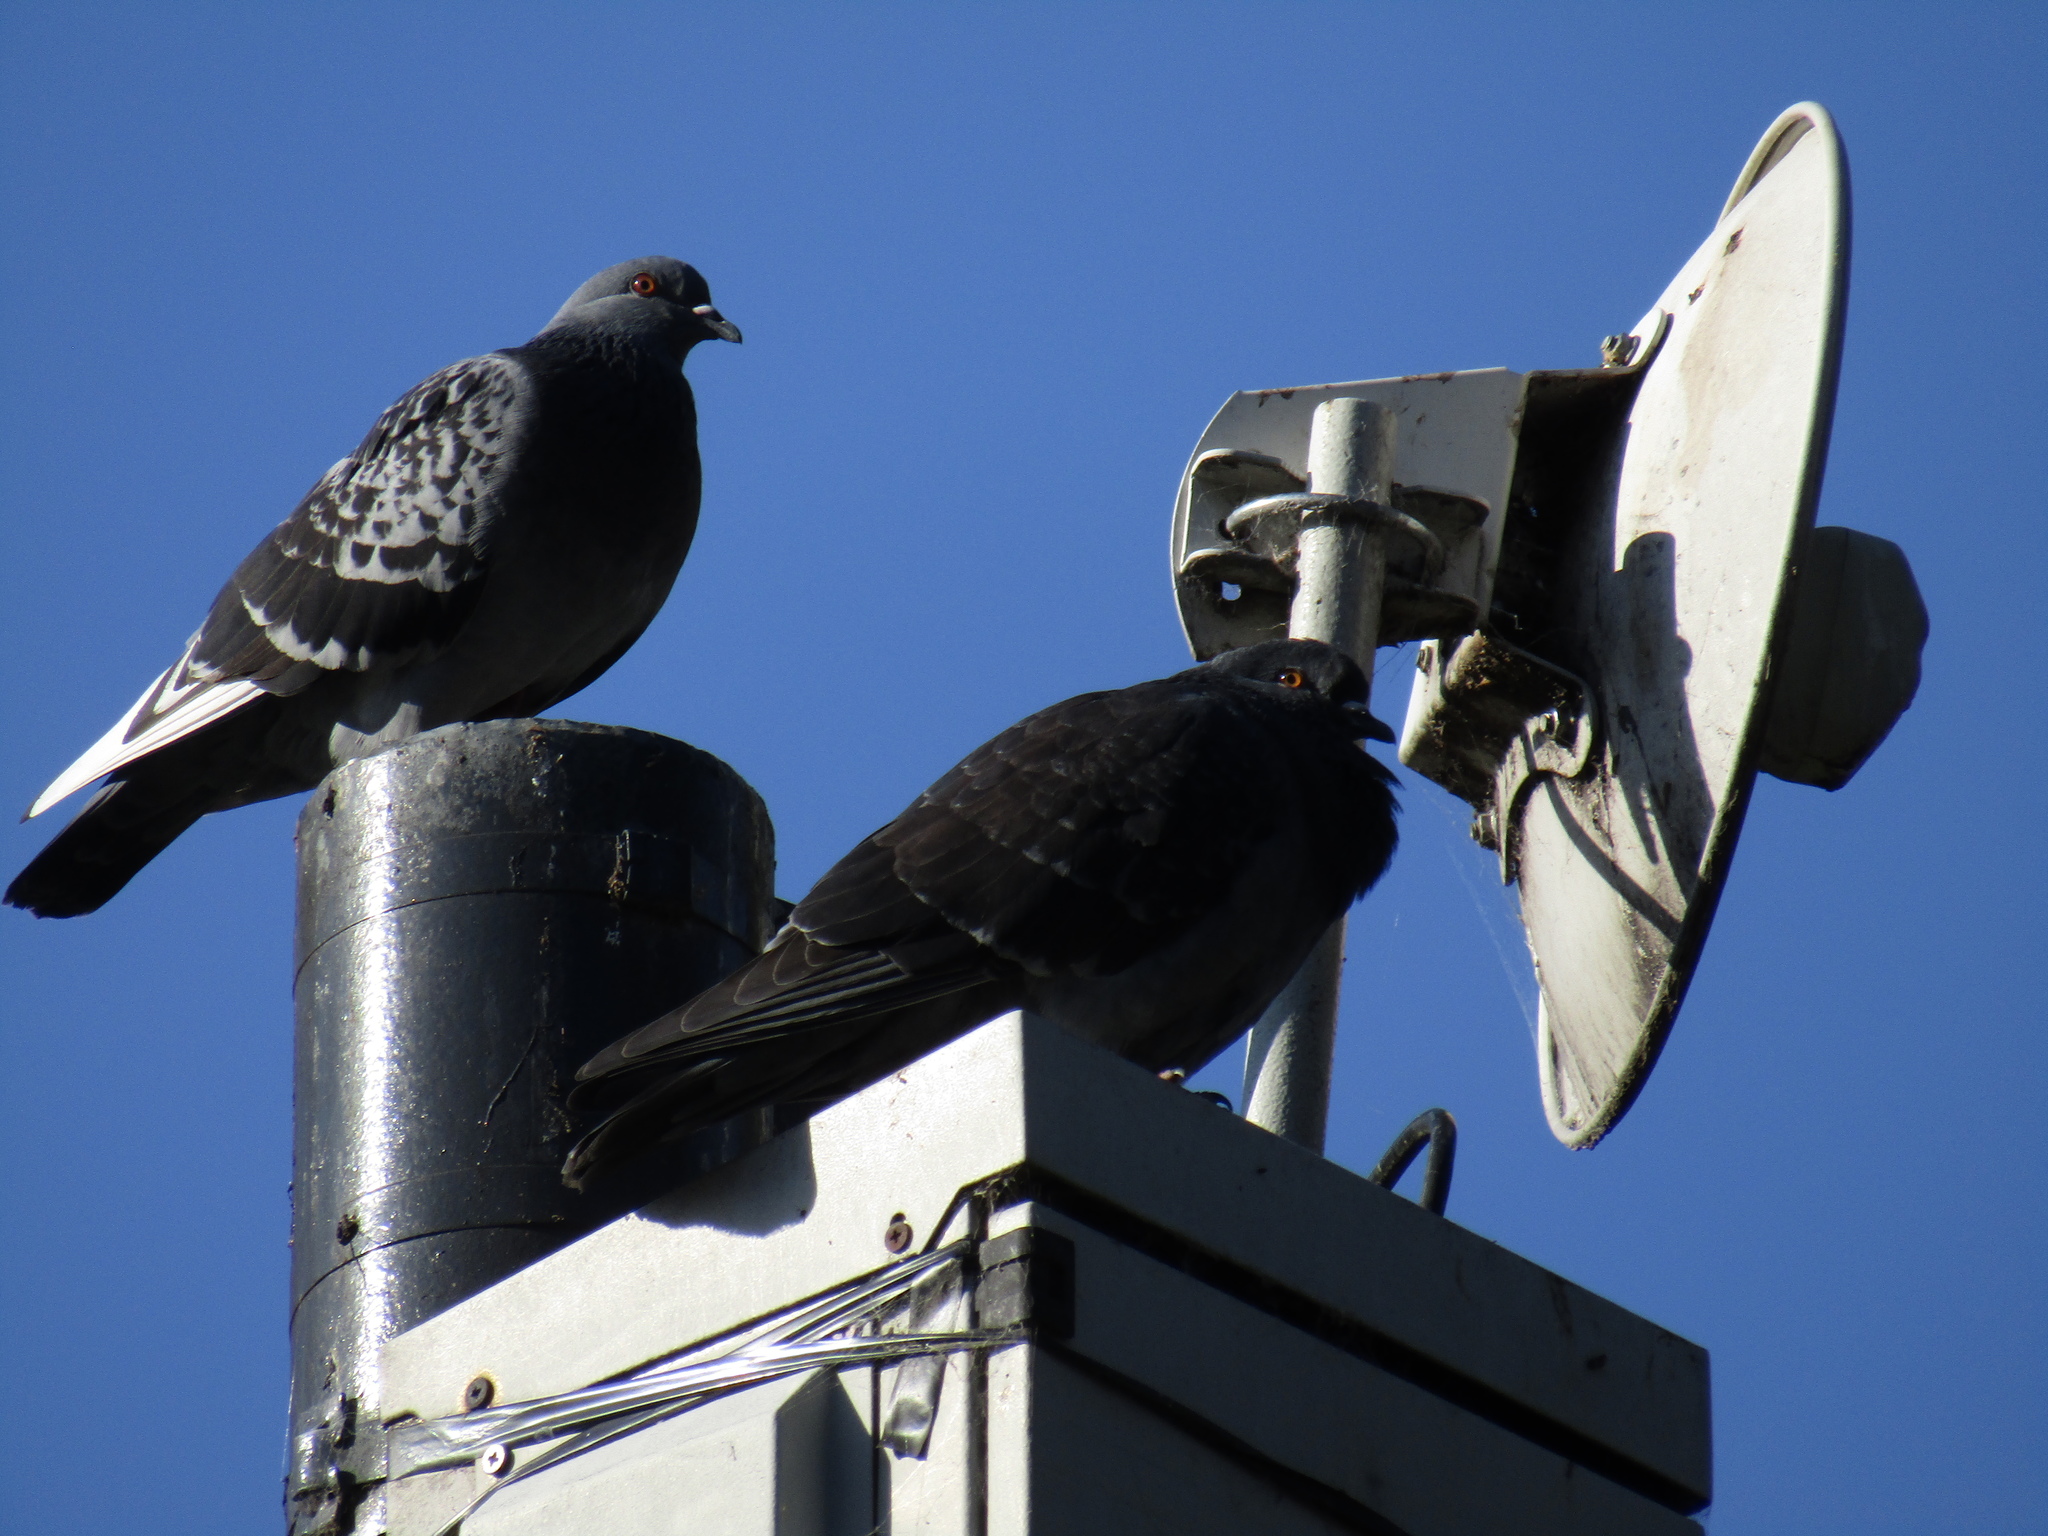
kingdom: Animalia
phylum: Chordata
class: Aves
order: Columbiformes
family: Columbidae
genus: Columba
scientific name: Columba livia
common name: Rock pigeon
